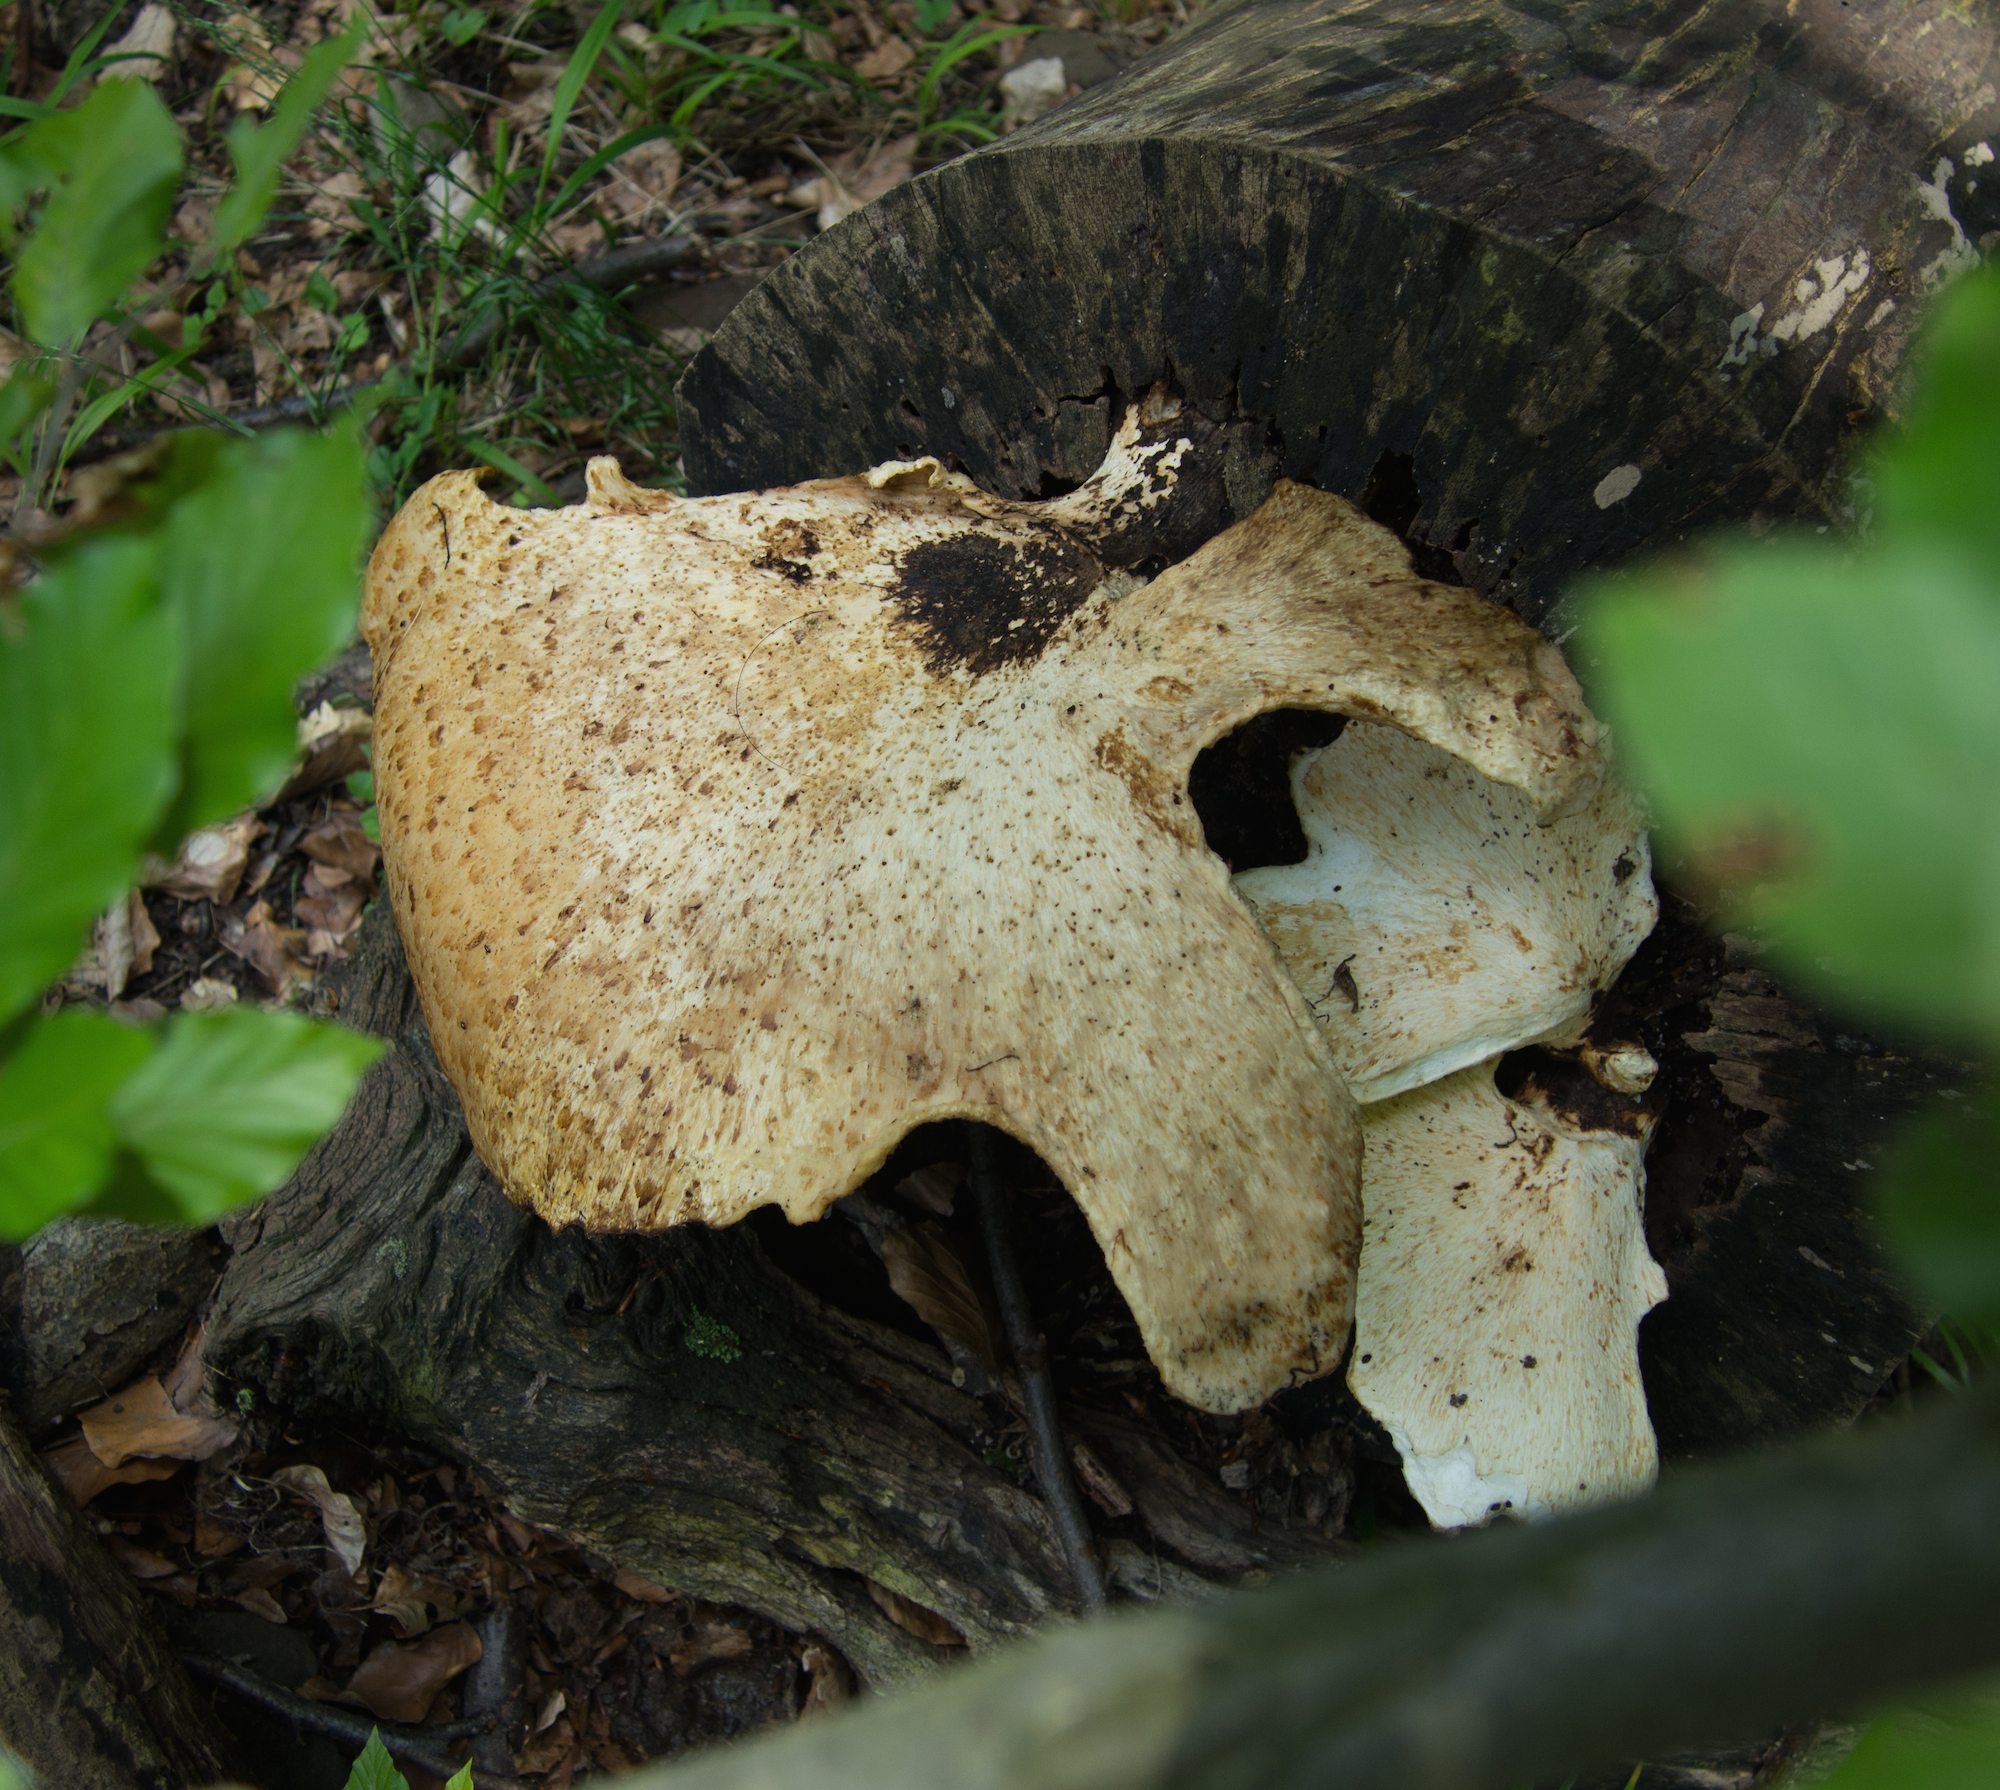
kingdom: Fungi
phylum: Basidiomycota
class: Agaricomycetes
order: Polyporales
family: Polyporaceae
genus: Cerioporus
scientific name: Cerioporus squamosus
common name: Dryad's saddle
